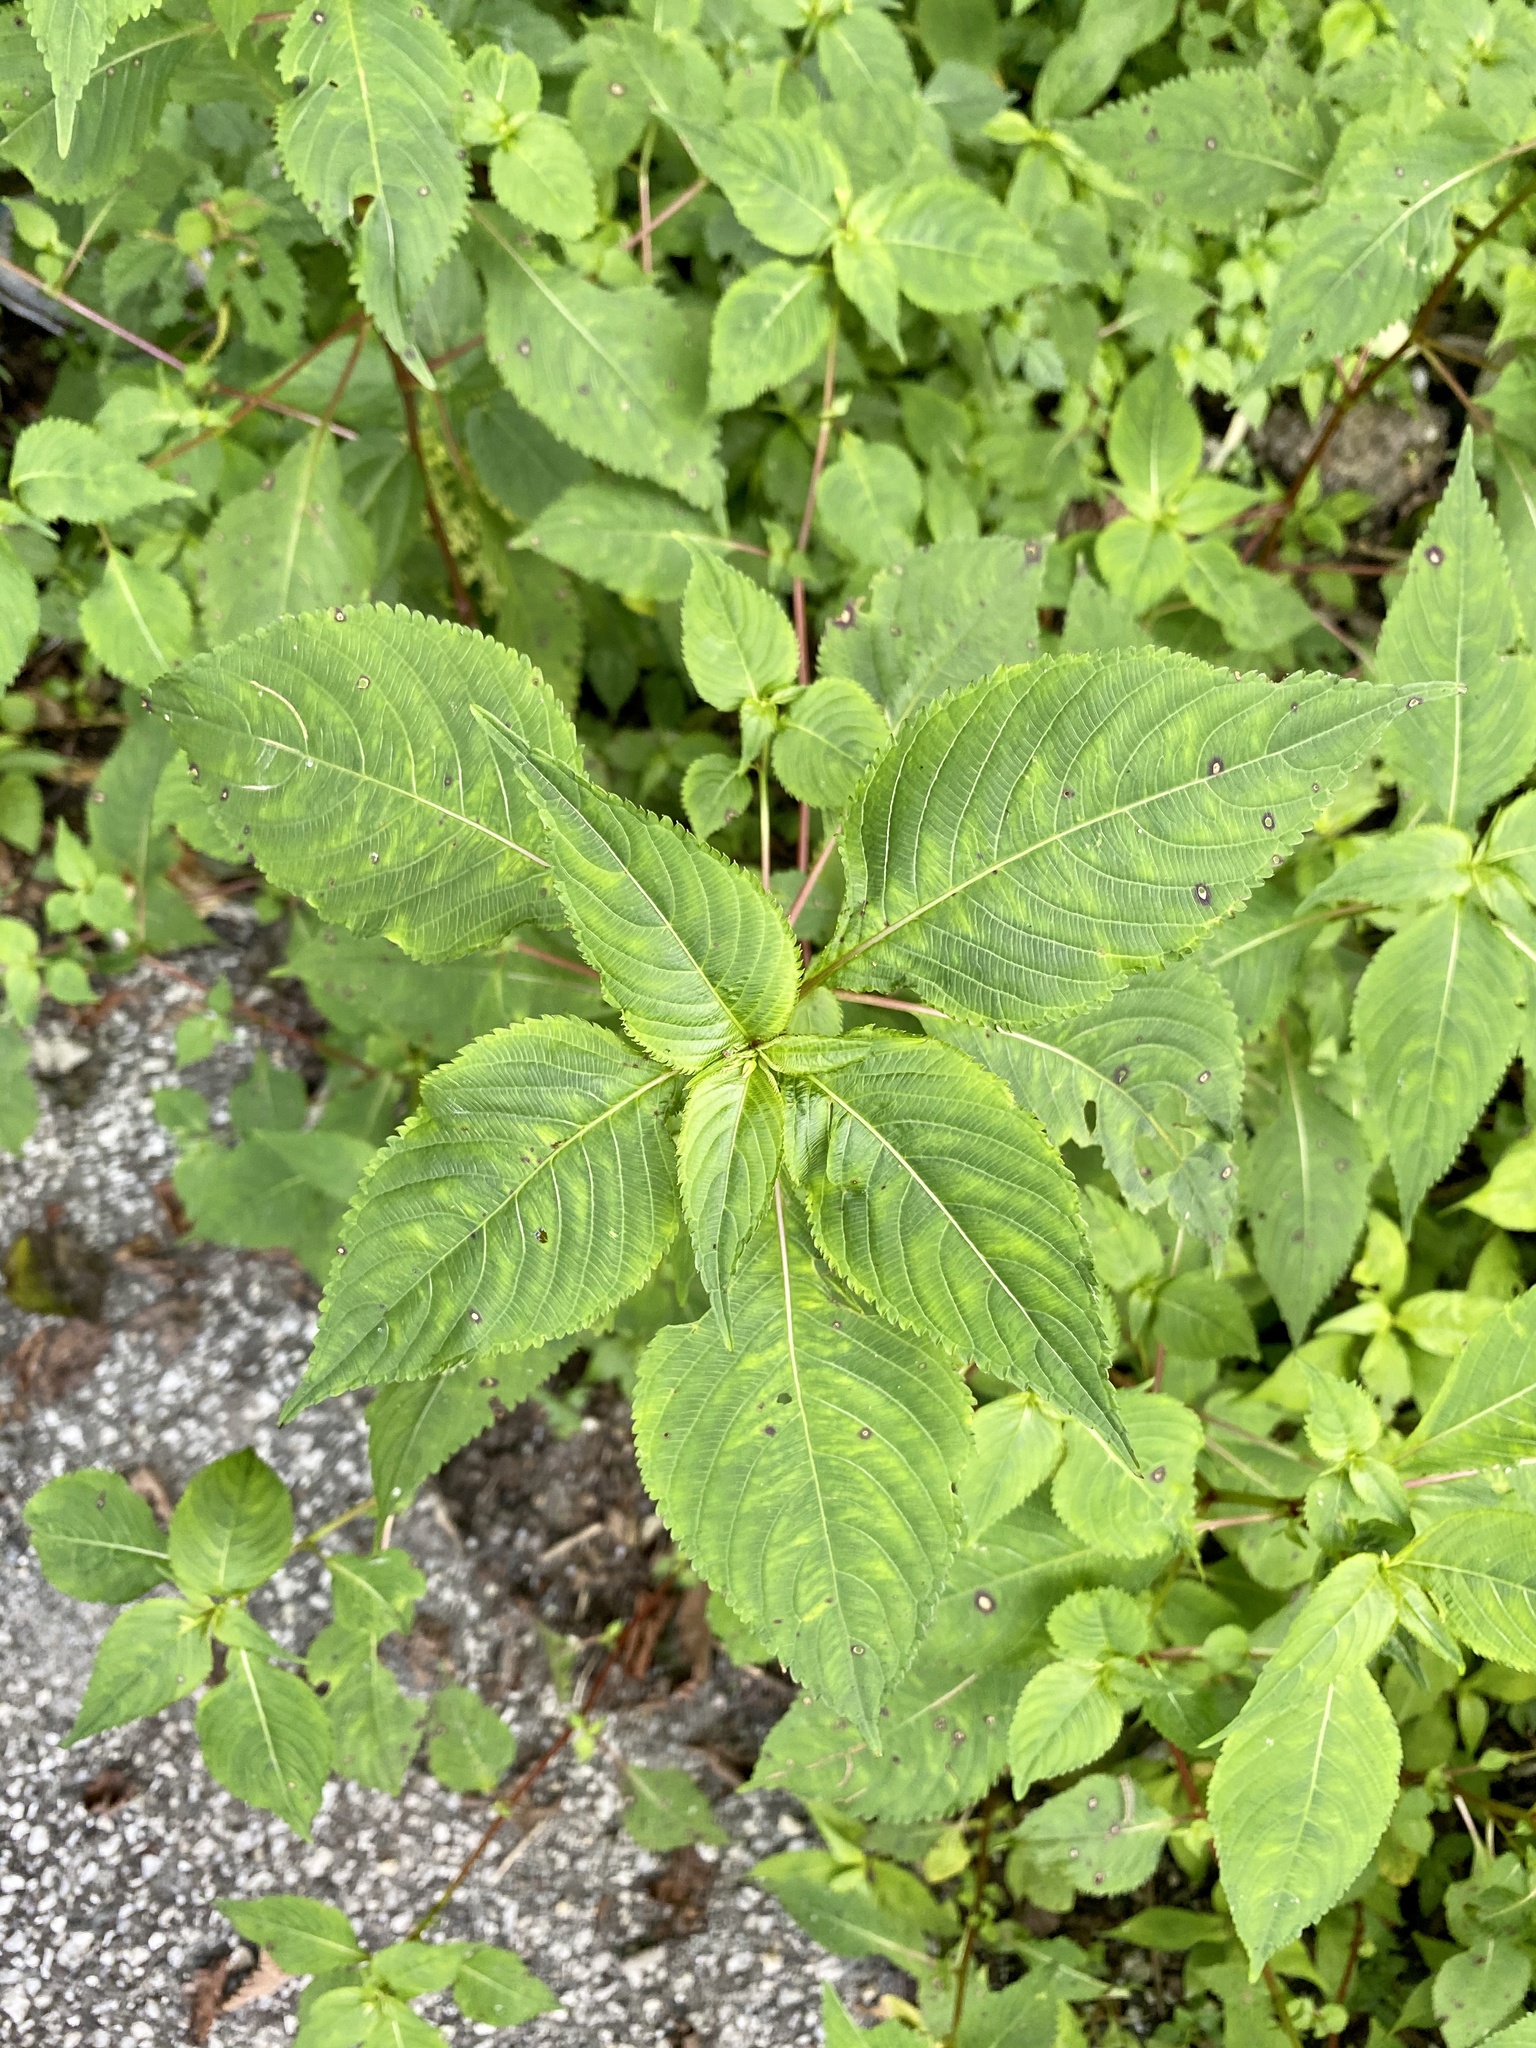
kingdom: Plantae
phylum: Tracheophyta
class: Magnoliopsida
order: Ericales
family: Balsaminaceae
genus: Impatiens
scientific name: Impatiens textorii
